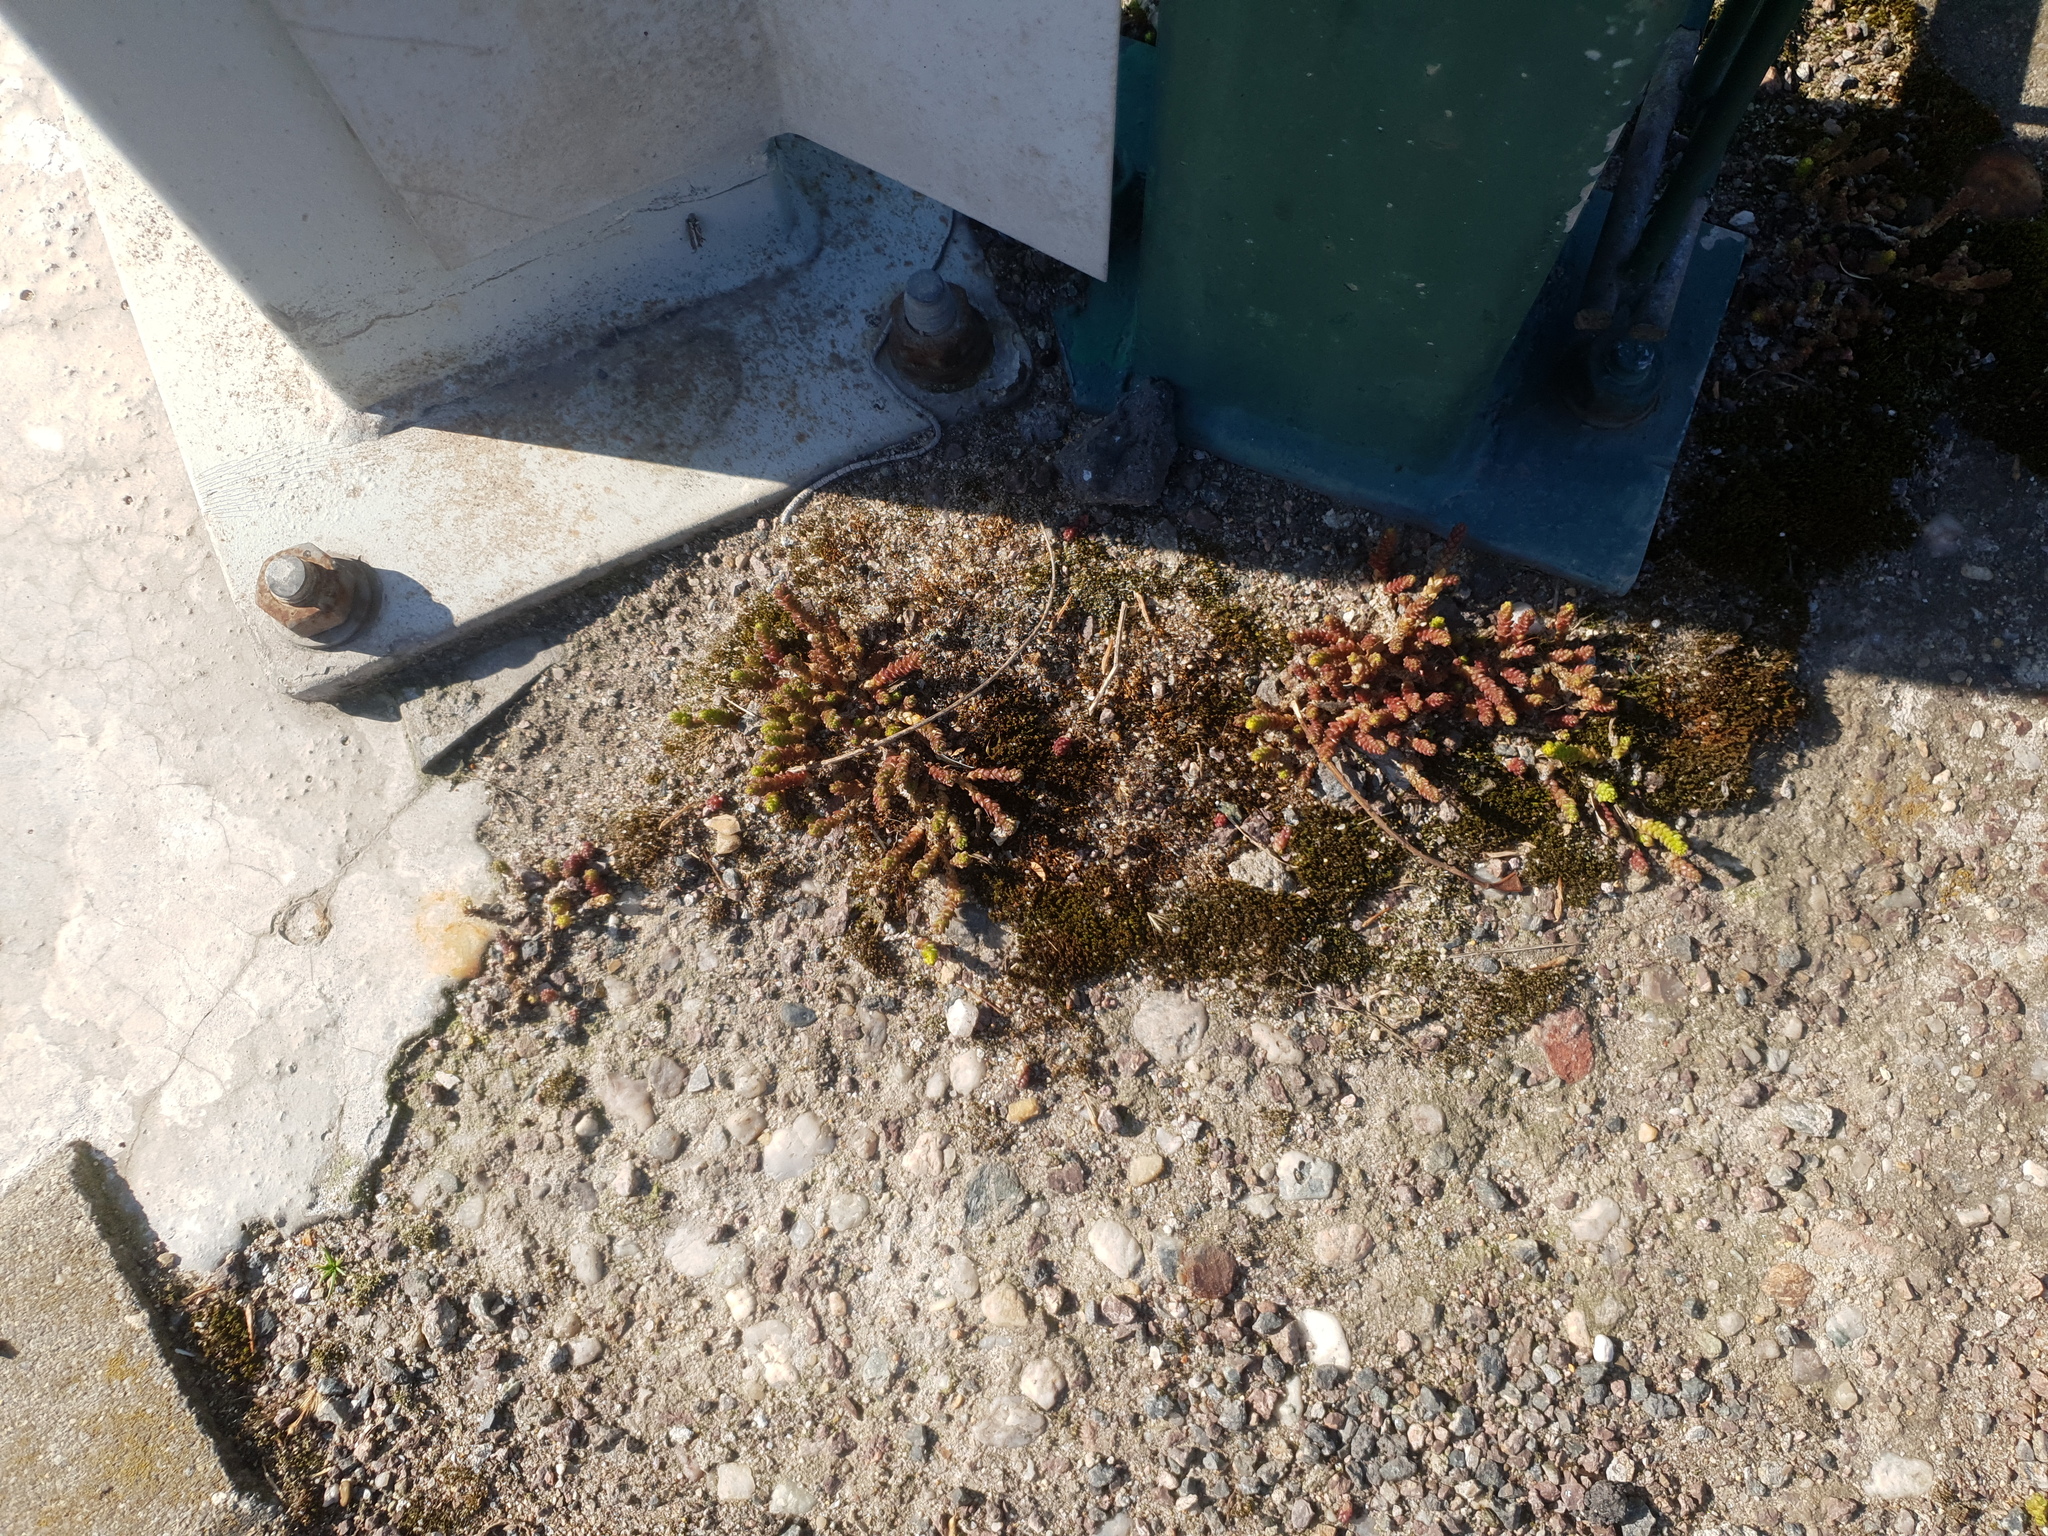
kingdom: Plantae
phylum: Tracheophyta
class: Magnoliopsida
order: Saxifragales
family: Crassulaceae
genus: Sedum
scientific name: Sedum acre
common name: Biting stonecrop
